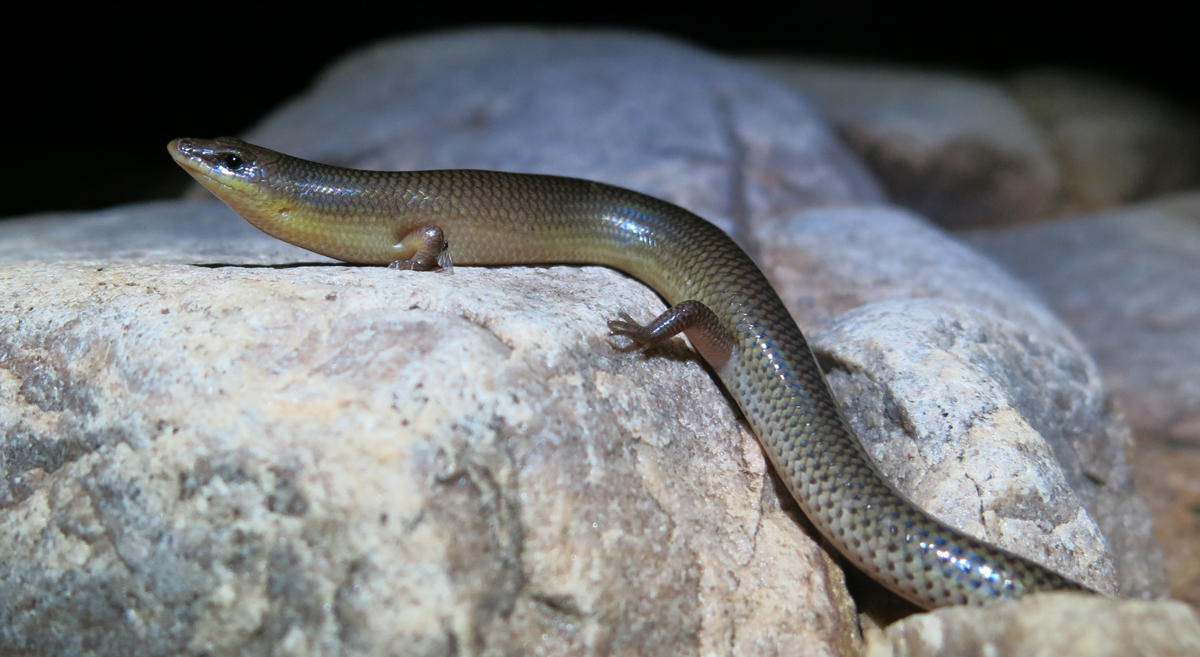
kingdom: Animalia
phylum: Chordata
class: Squamata
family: Scincidae
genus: Mochlus
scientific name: Mochlus sundevallii
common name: Peters' eyelid skink
